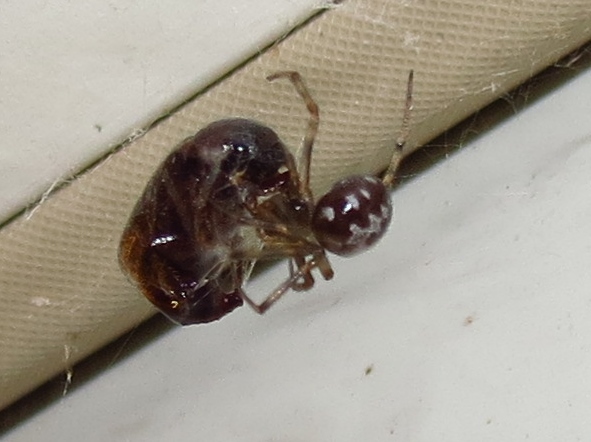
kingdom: Animalia
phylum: Arthropoda
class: Arachnida
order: Araneae
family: Theridiidae
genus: Steatoda
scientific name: Steatoda triangulosa
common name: Triangulate bud spider
